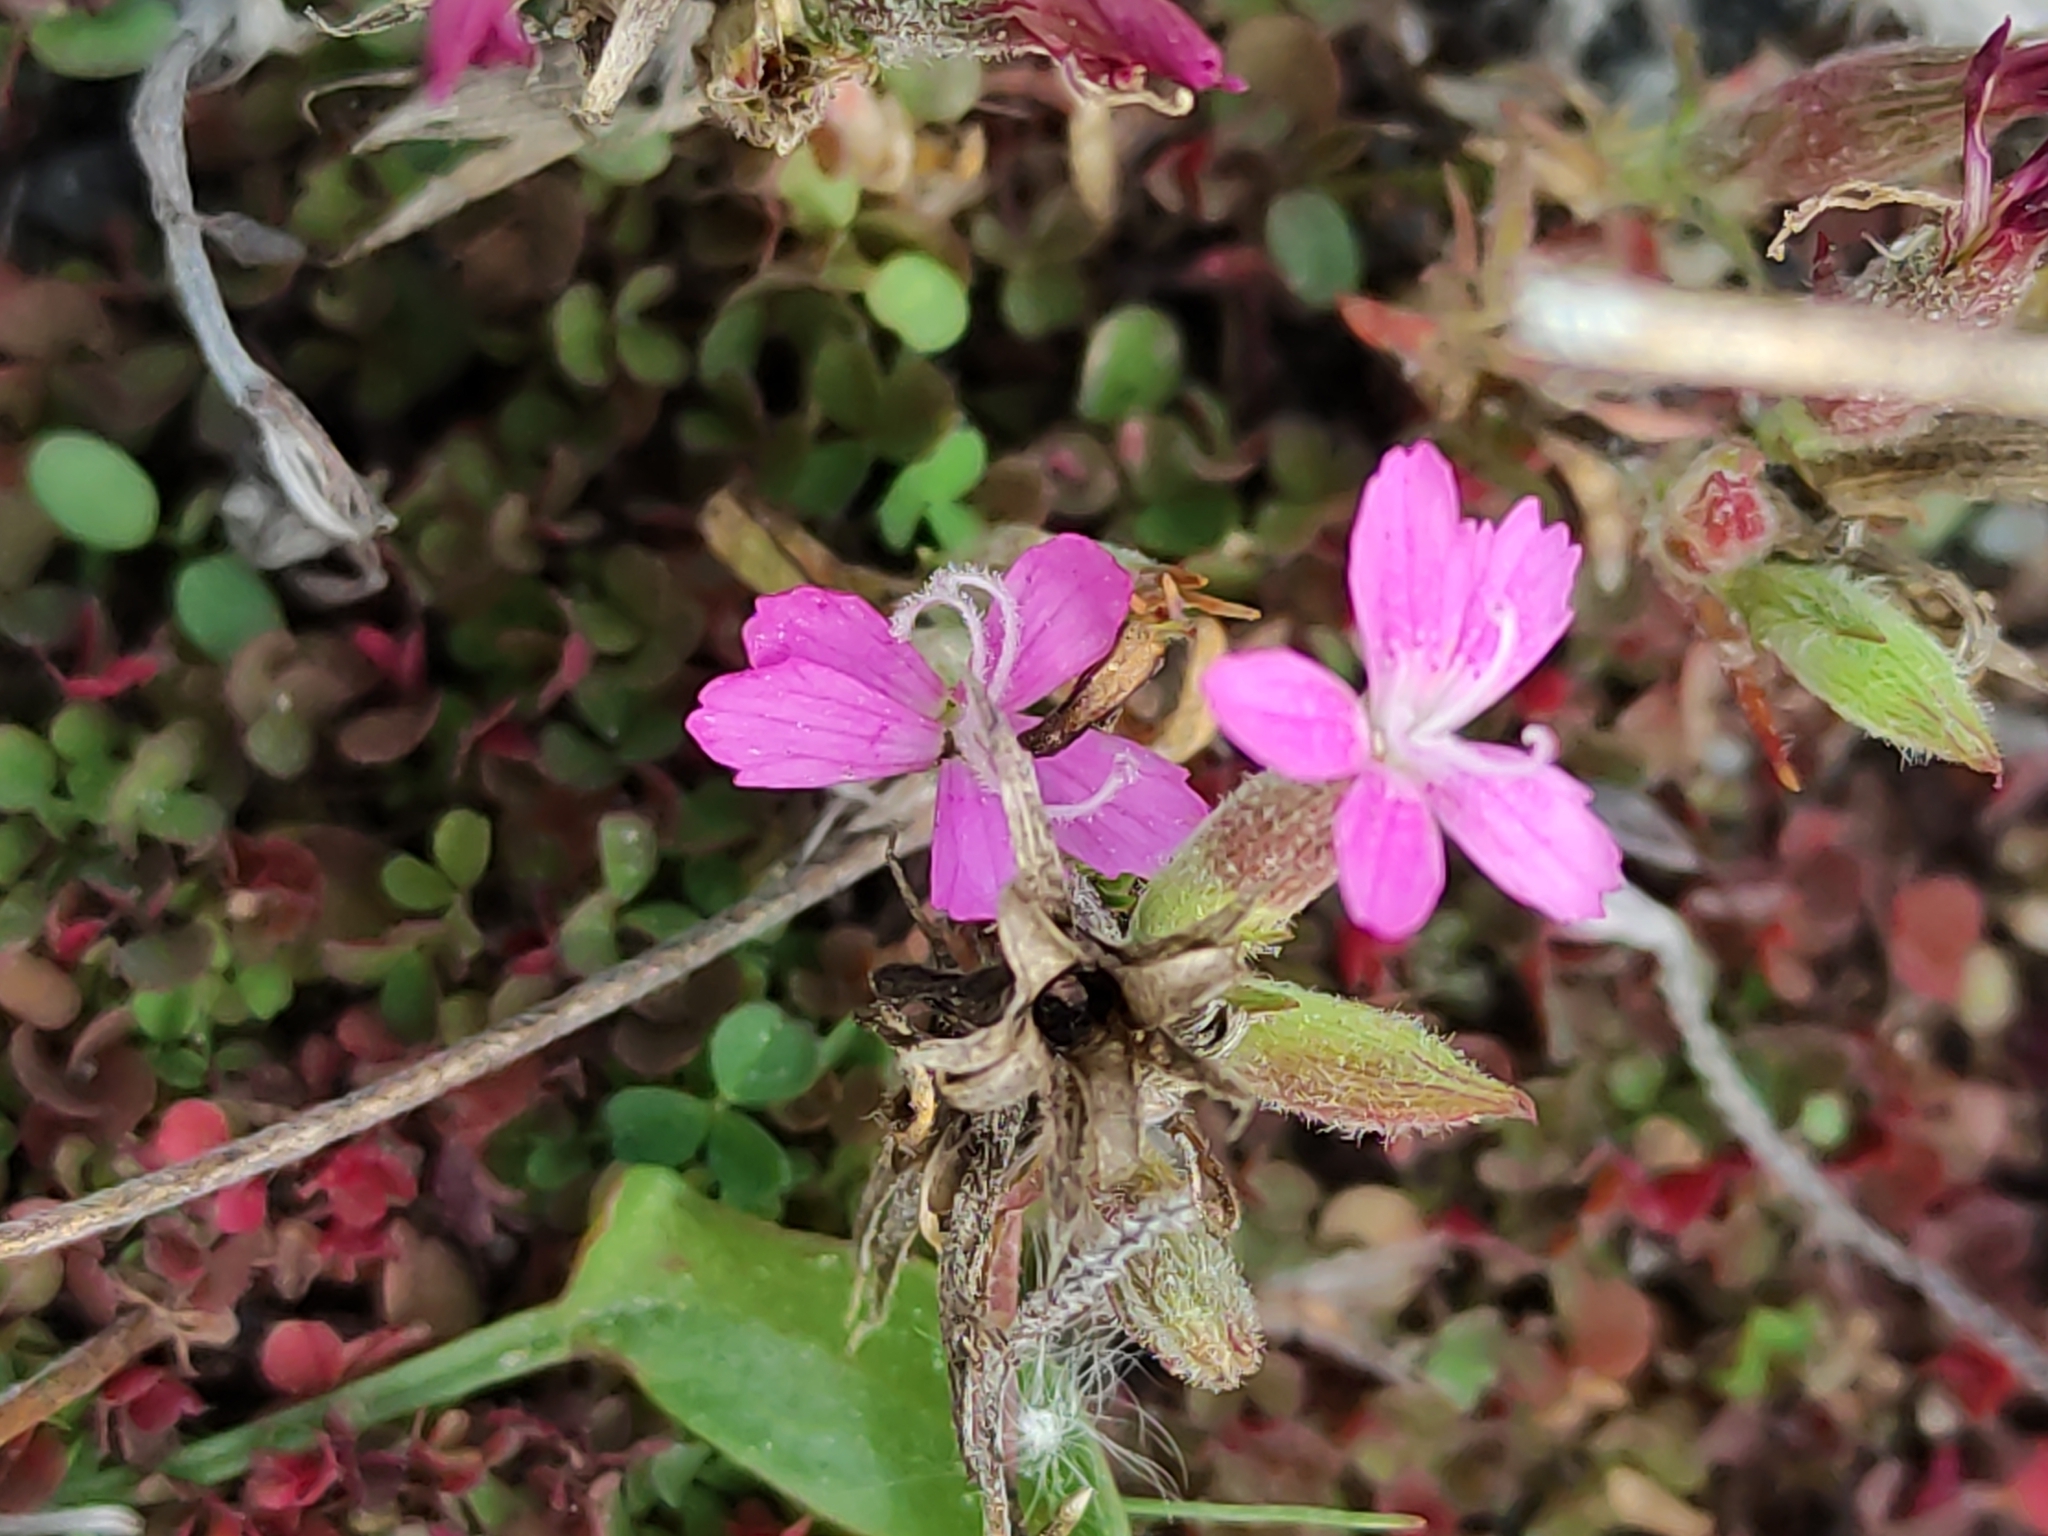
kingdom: Plantae
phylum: Tracheophyta
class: Magnoliopsida
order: Caryophyllales
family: Caryophyllaceae
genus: Dianthus
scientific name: Dianthus armeria
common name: Deptford pink
